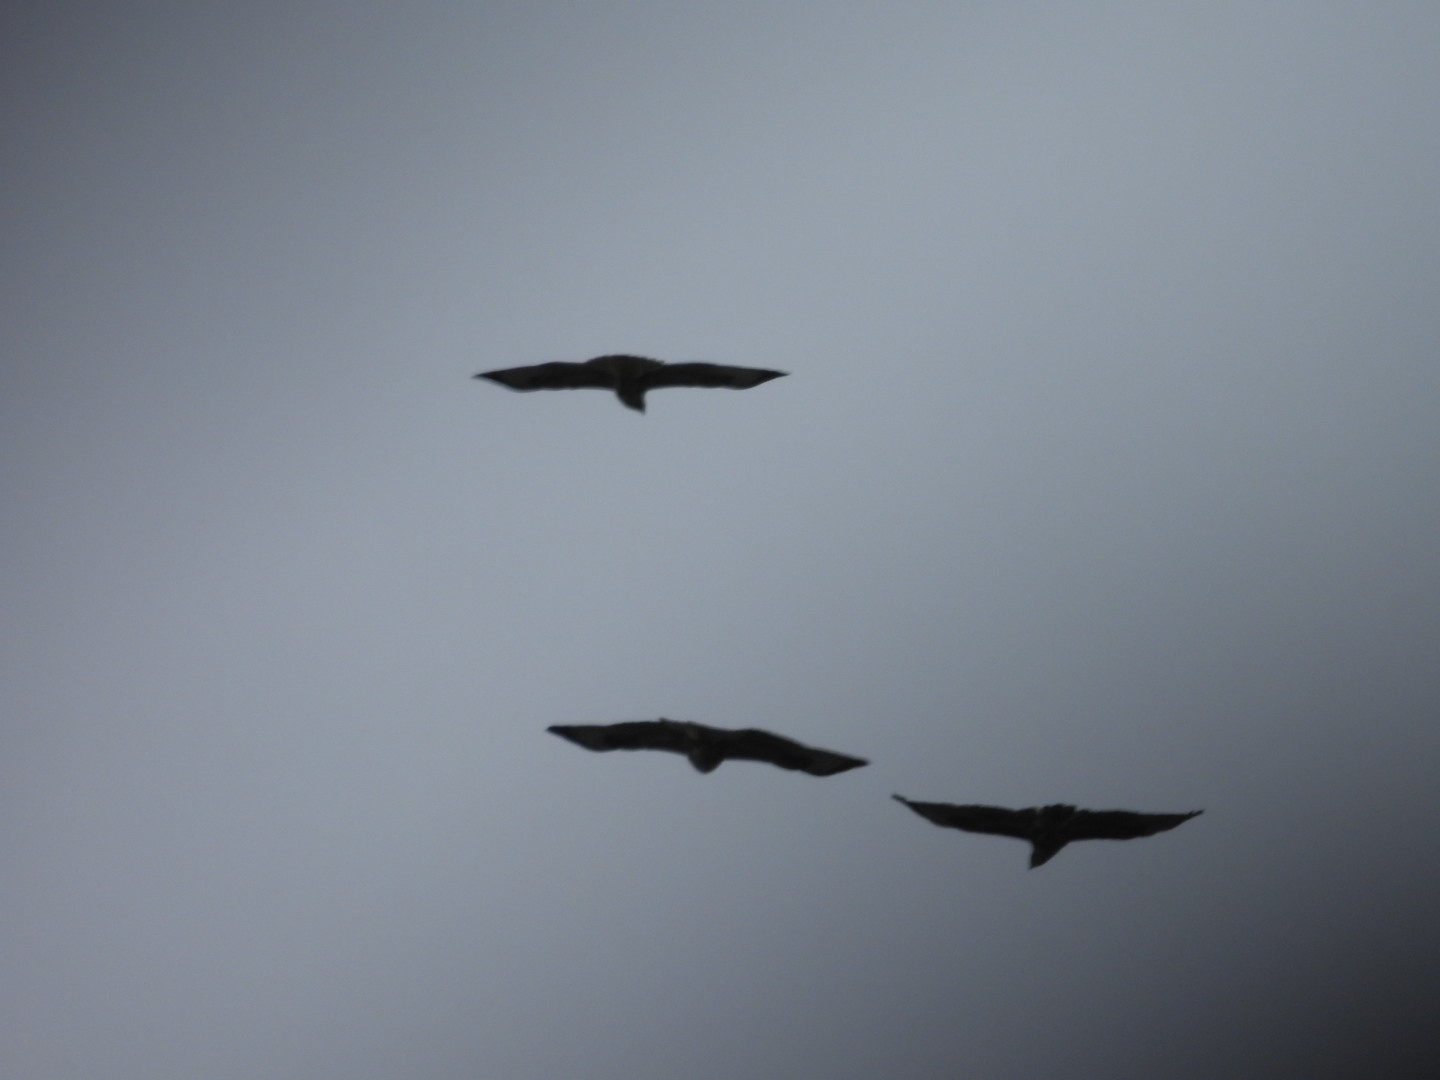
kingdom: Animalia
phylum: Chordata
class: Aves
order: Accipitriformes
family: Accipitridae
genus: Buteo
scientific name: Buteo buteo
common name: Common buzzard
